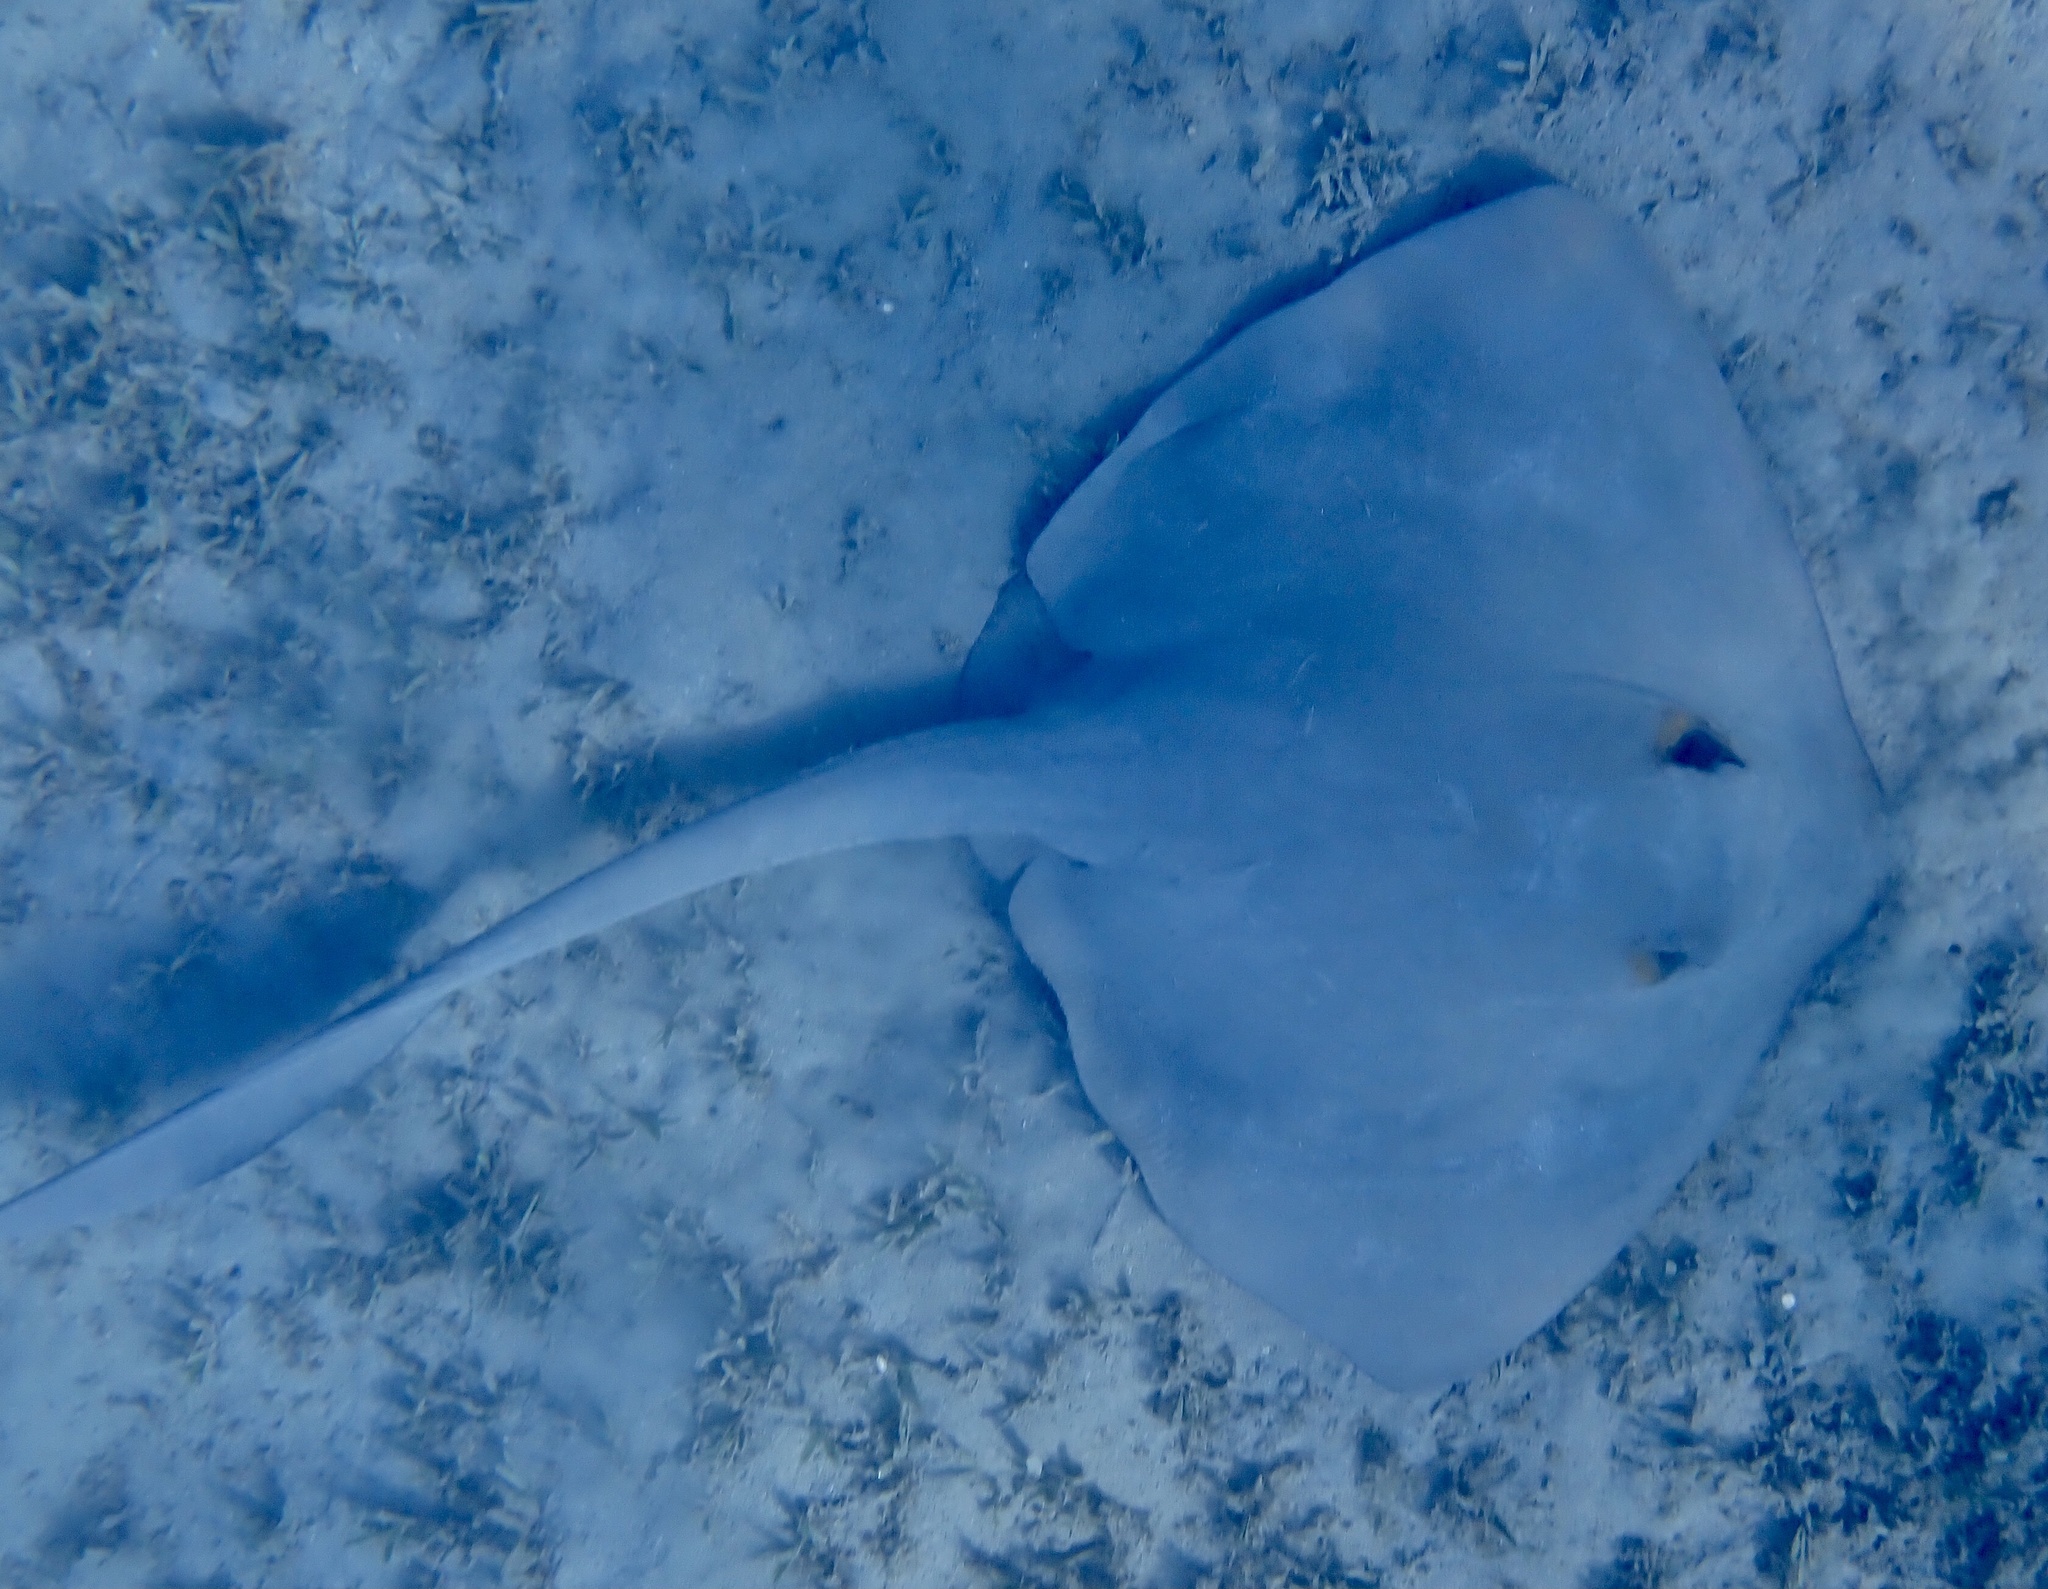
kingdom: Animalia
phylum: Chordata
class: Elasmobranchii
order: Myliobatiformes
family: Dasyatidae
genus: Pastinachus
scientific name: Pastinachus sephen
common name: Cowtail ray
